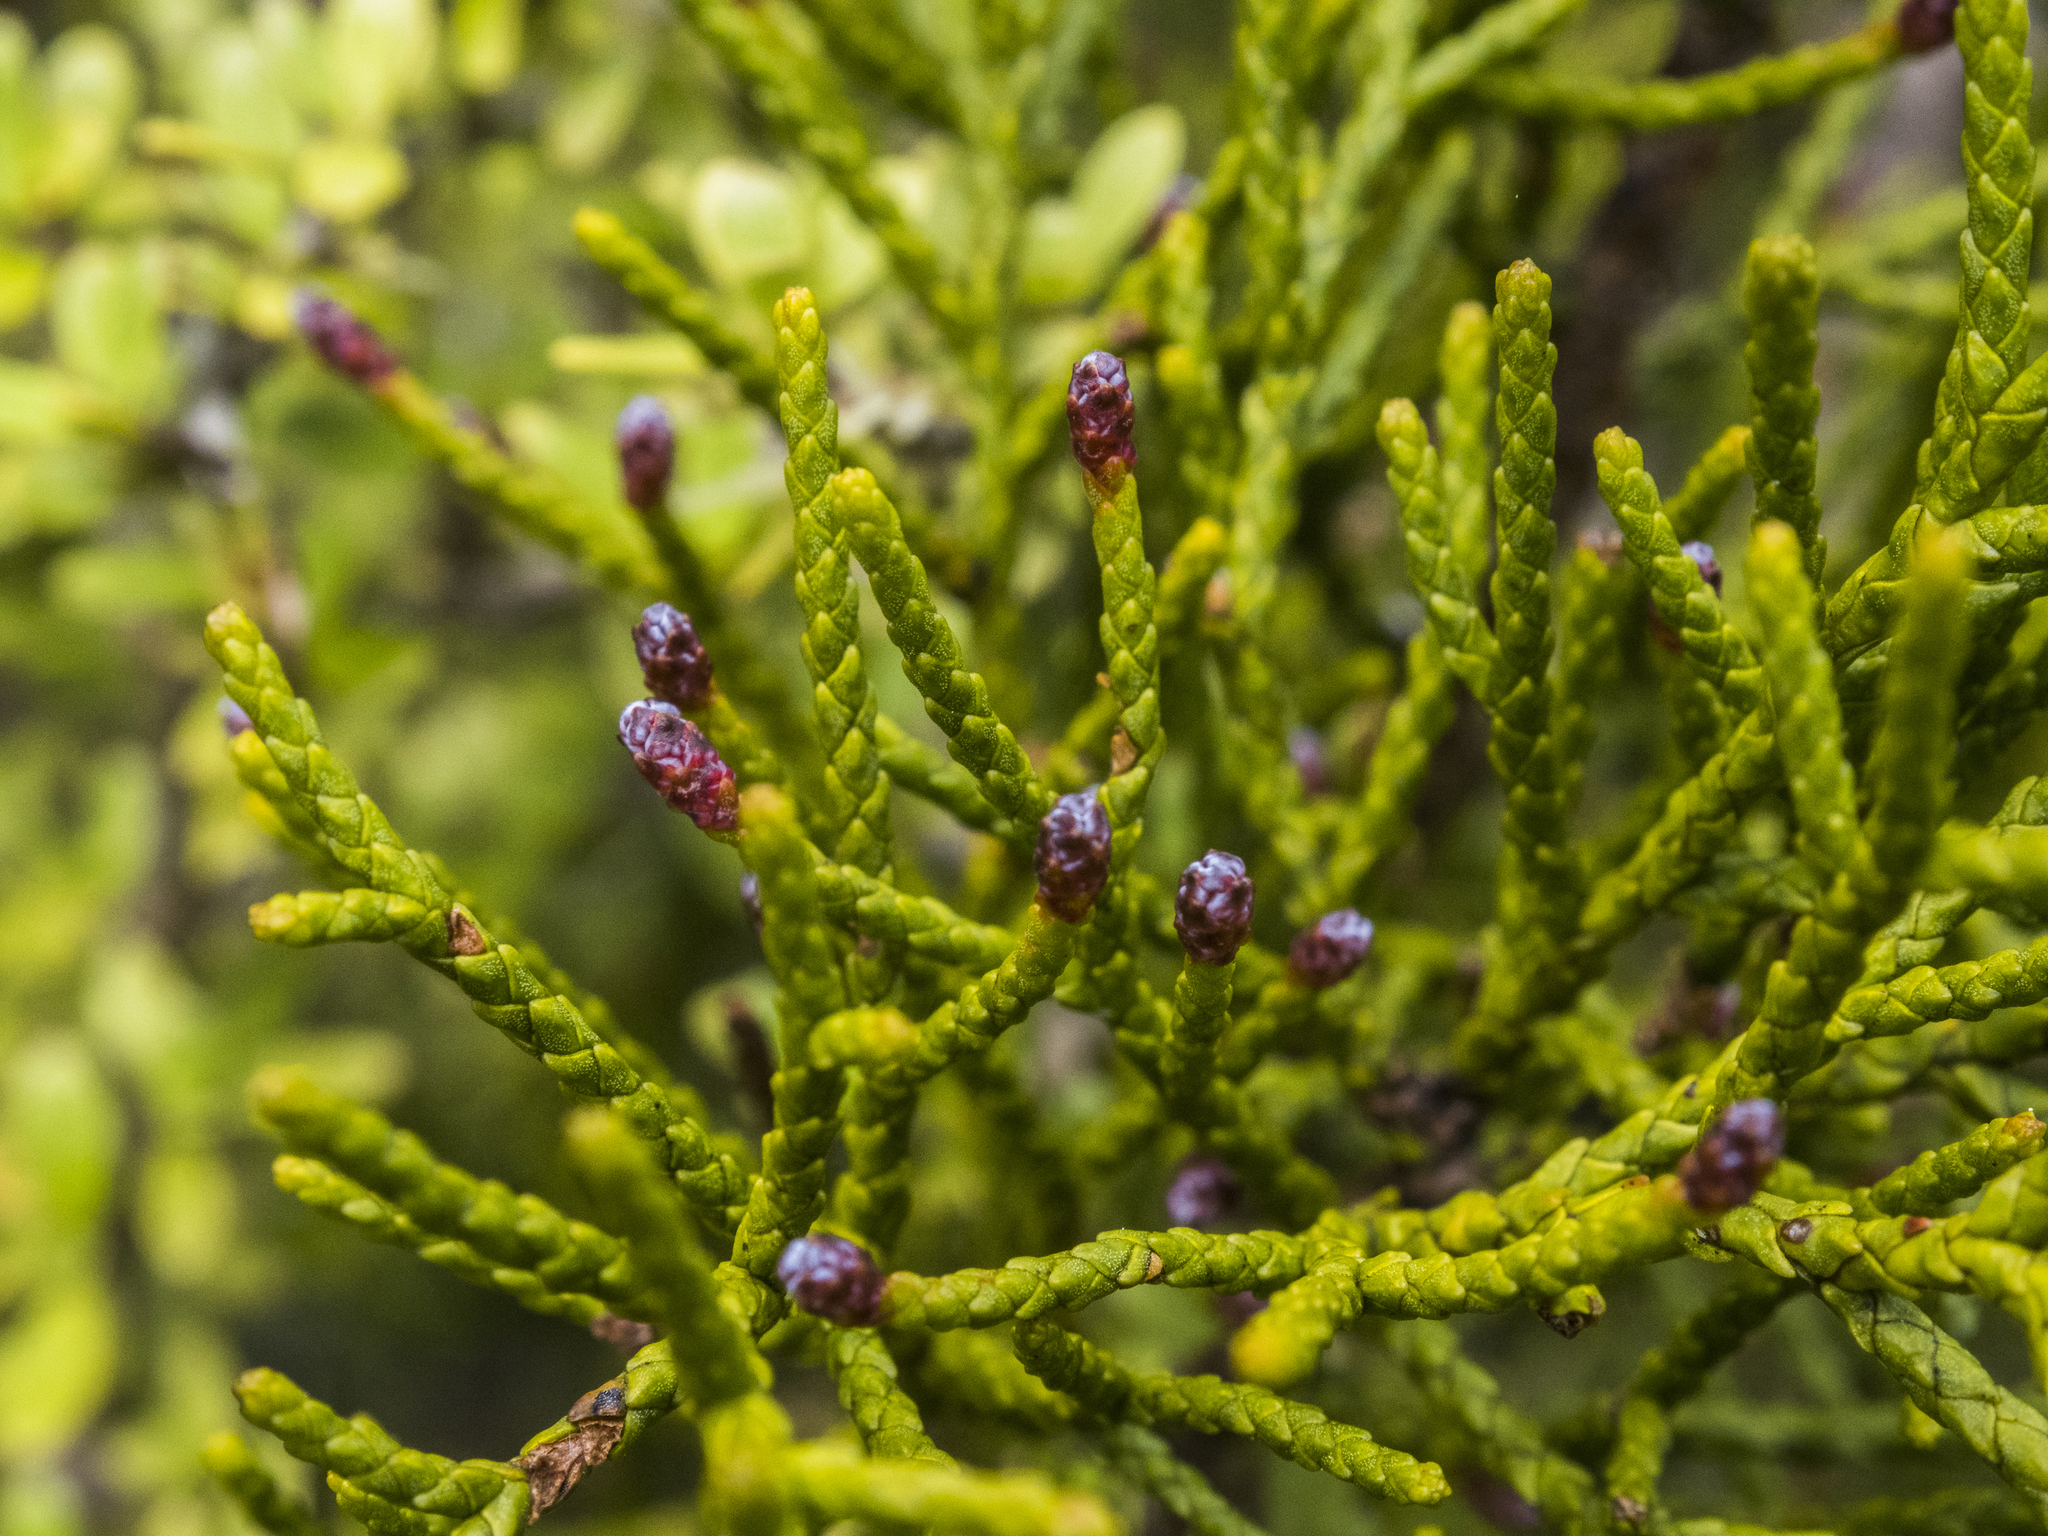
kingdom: Plantae
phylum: Tracheophyta
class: Pinopsida
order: Pinales
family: Podocarpaceae
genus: Halocarpus
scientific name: Halocarpus bidwillii
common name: Bog pine
